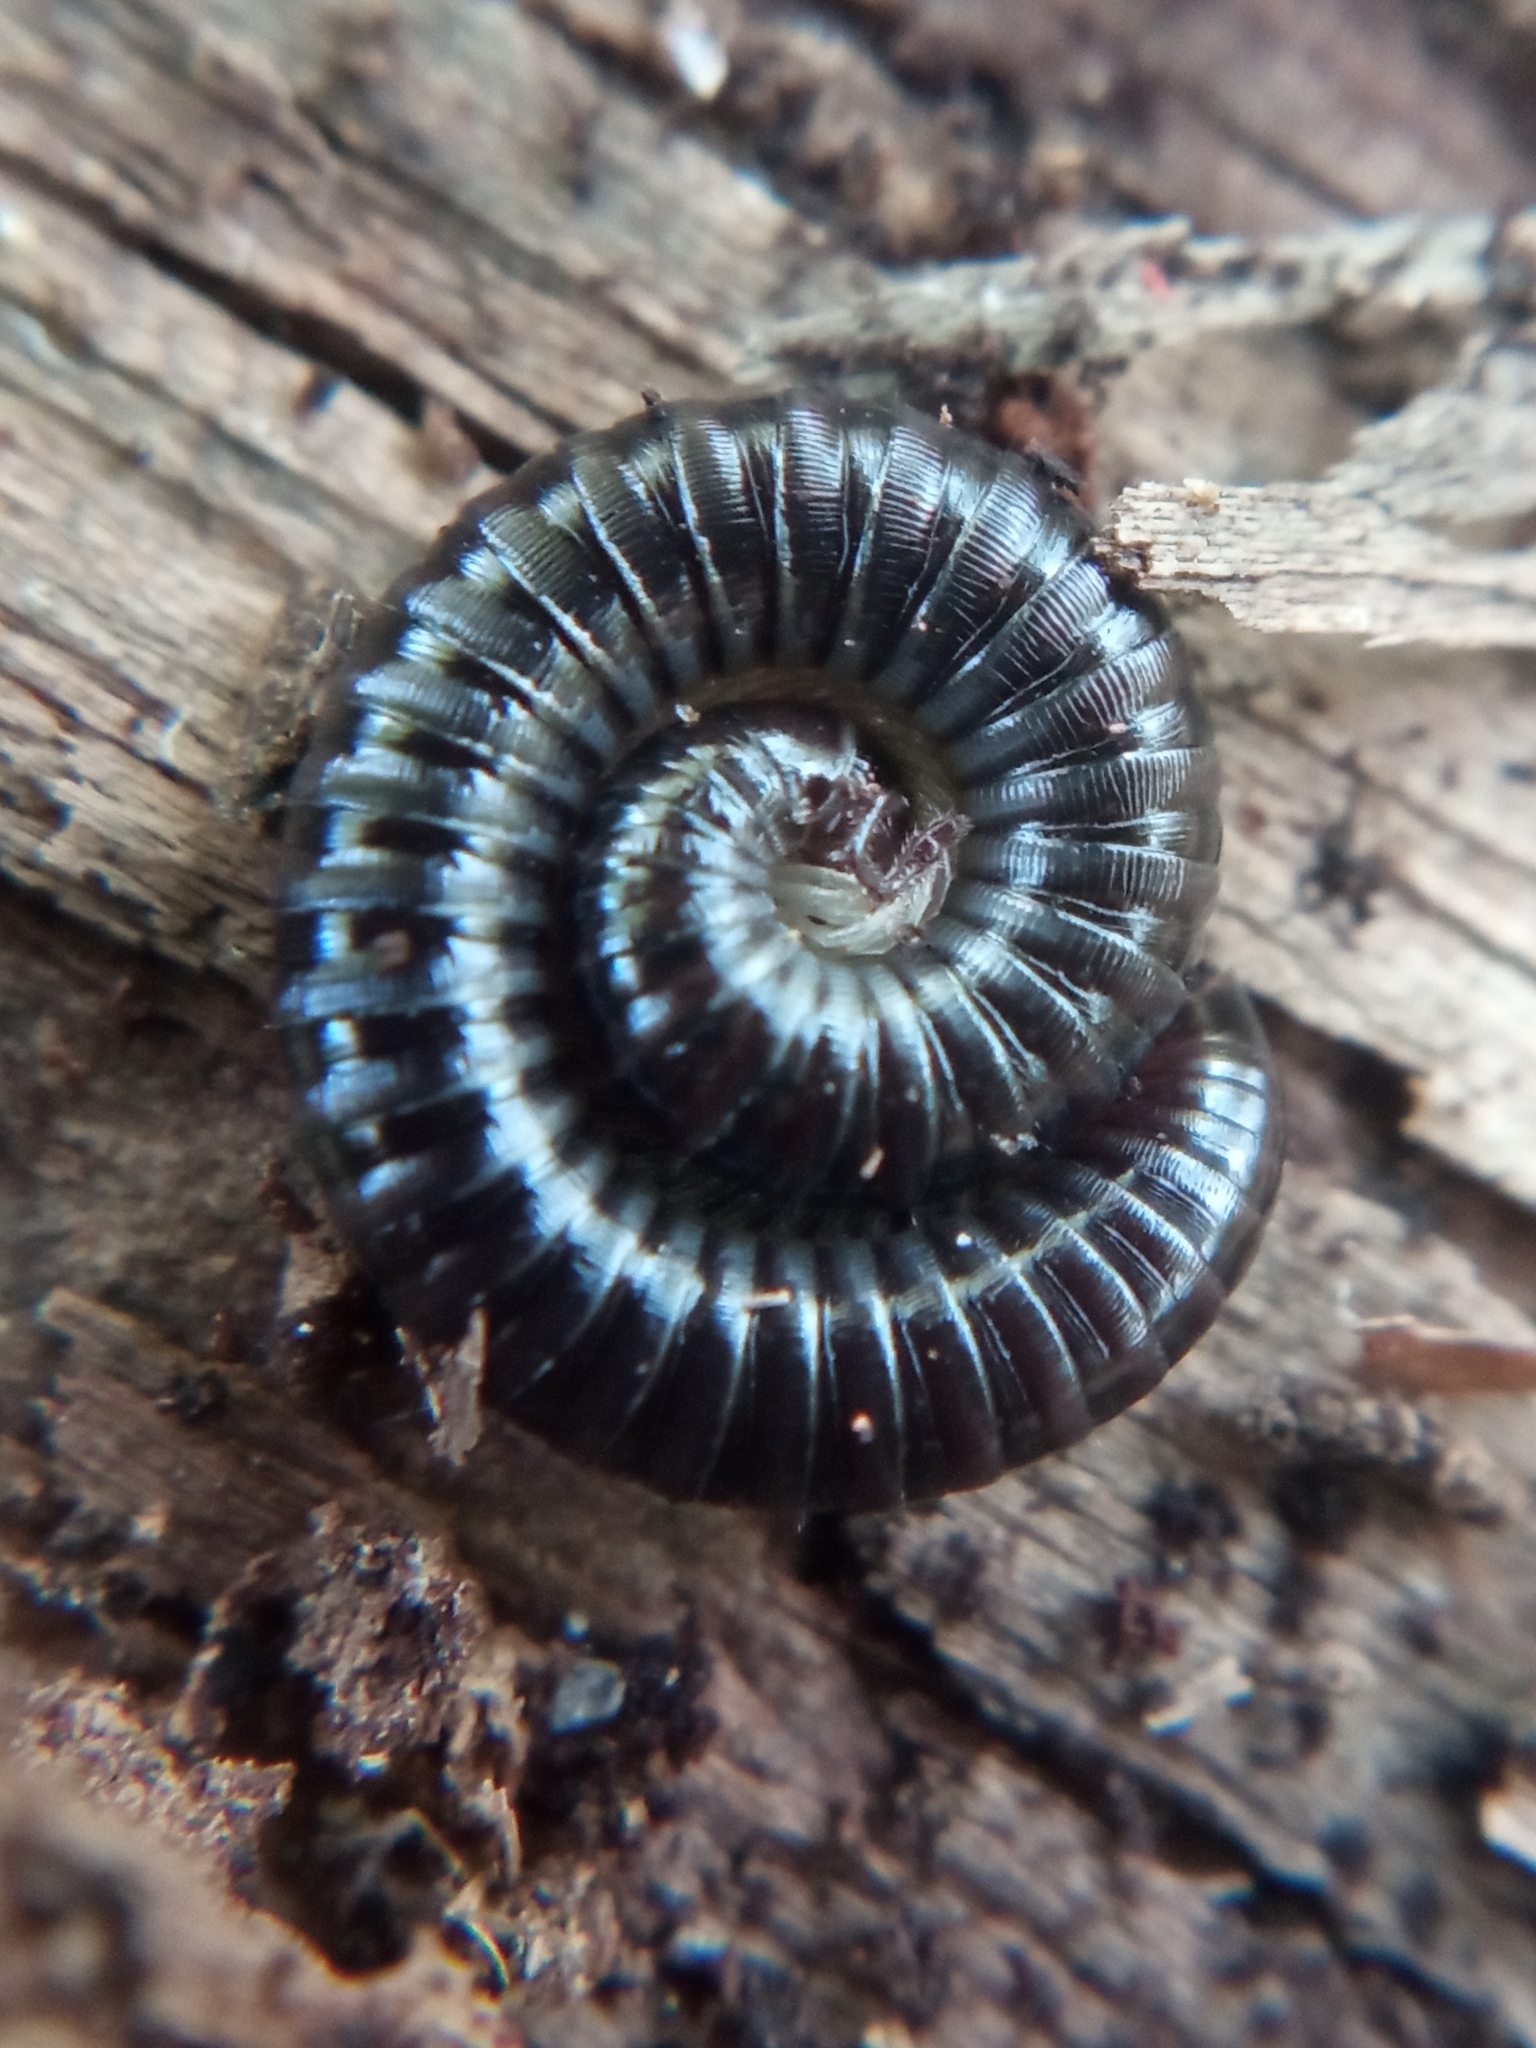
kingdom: Animalia
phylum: Arthropoda
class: Diplopoda
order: Julida
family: Julidae
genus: Tachypodoiulus
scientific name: Tachypodoiulus niger
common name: White-legged snake millipede
